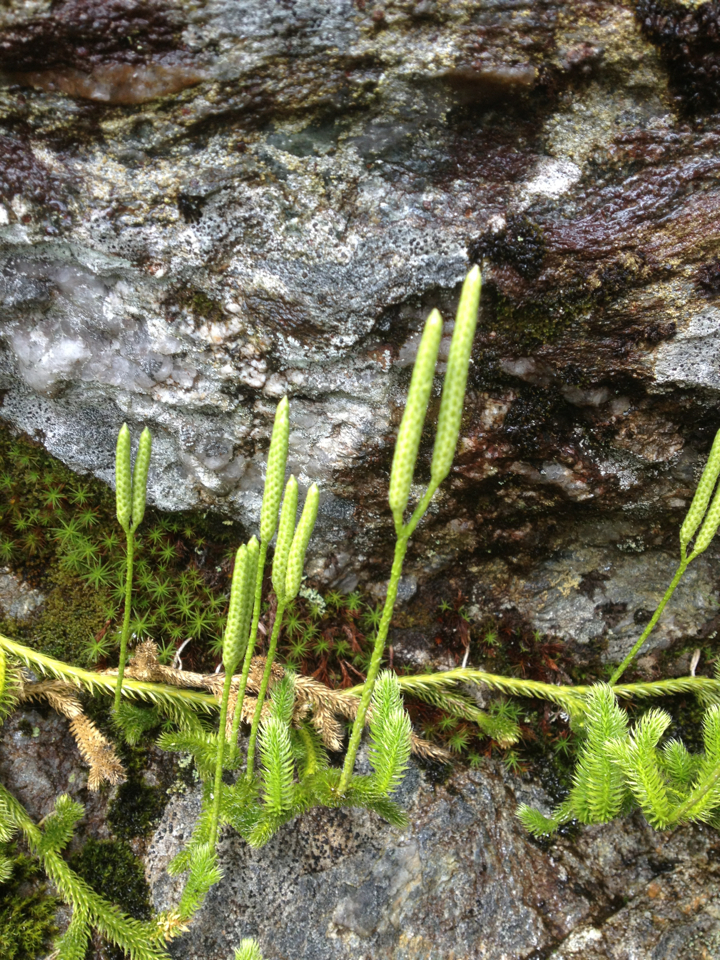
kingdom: Plantae
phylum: Tracheophyta
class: Lycopodiopsida
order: Lycopodiales
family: Lycopodiaceae
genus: Lycopodium
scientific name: Lycopodium clavatum
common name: Stag's-horn clubmoss
